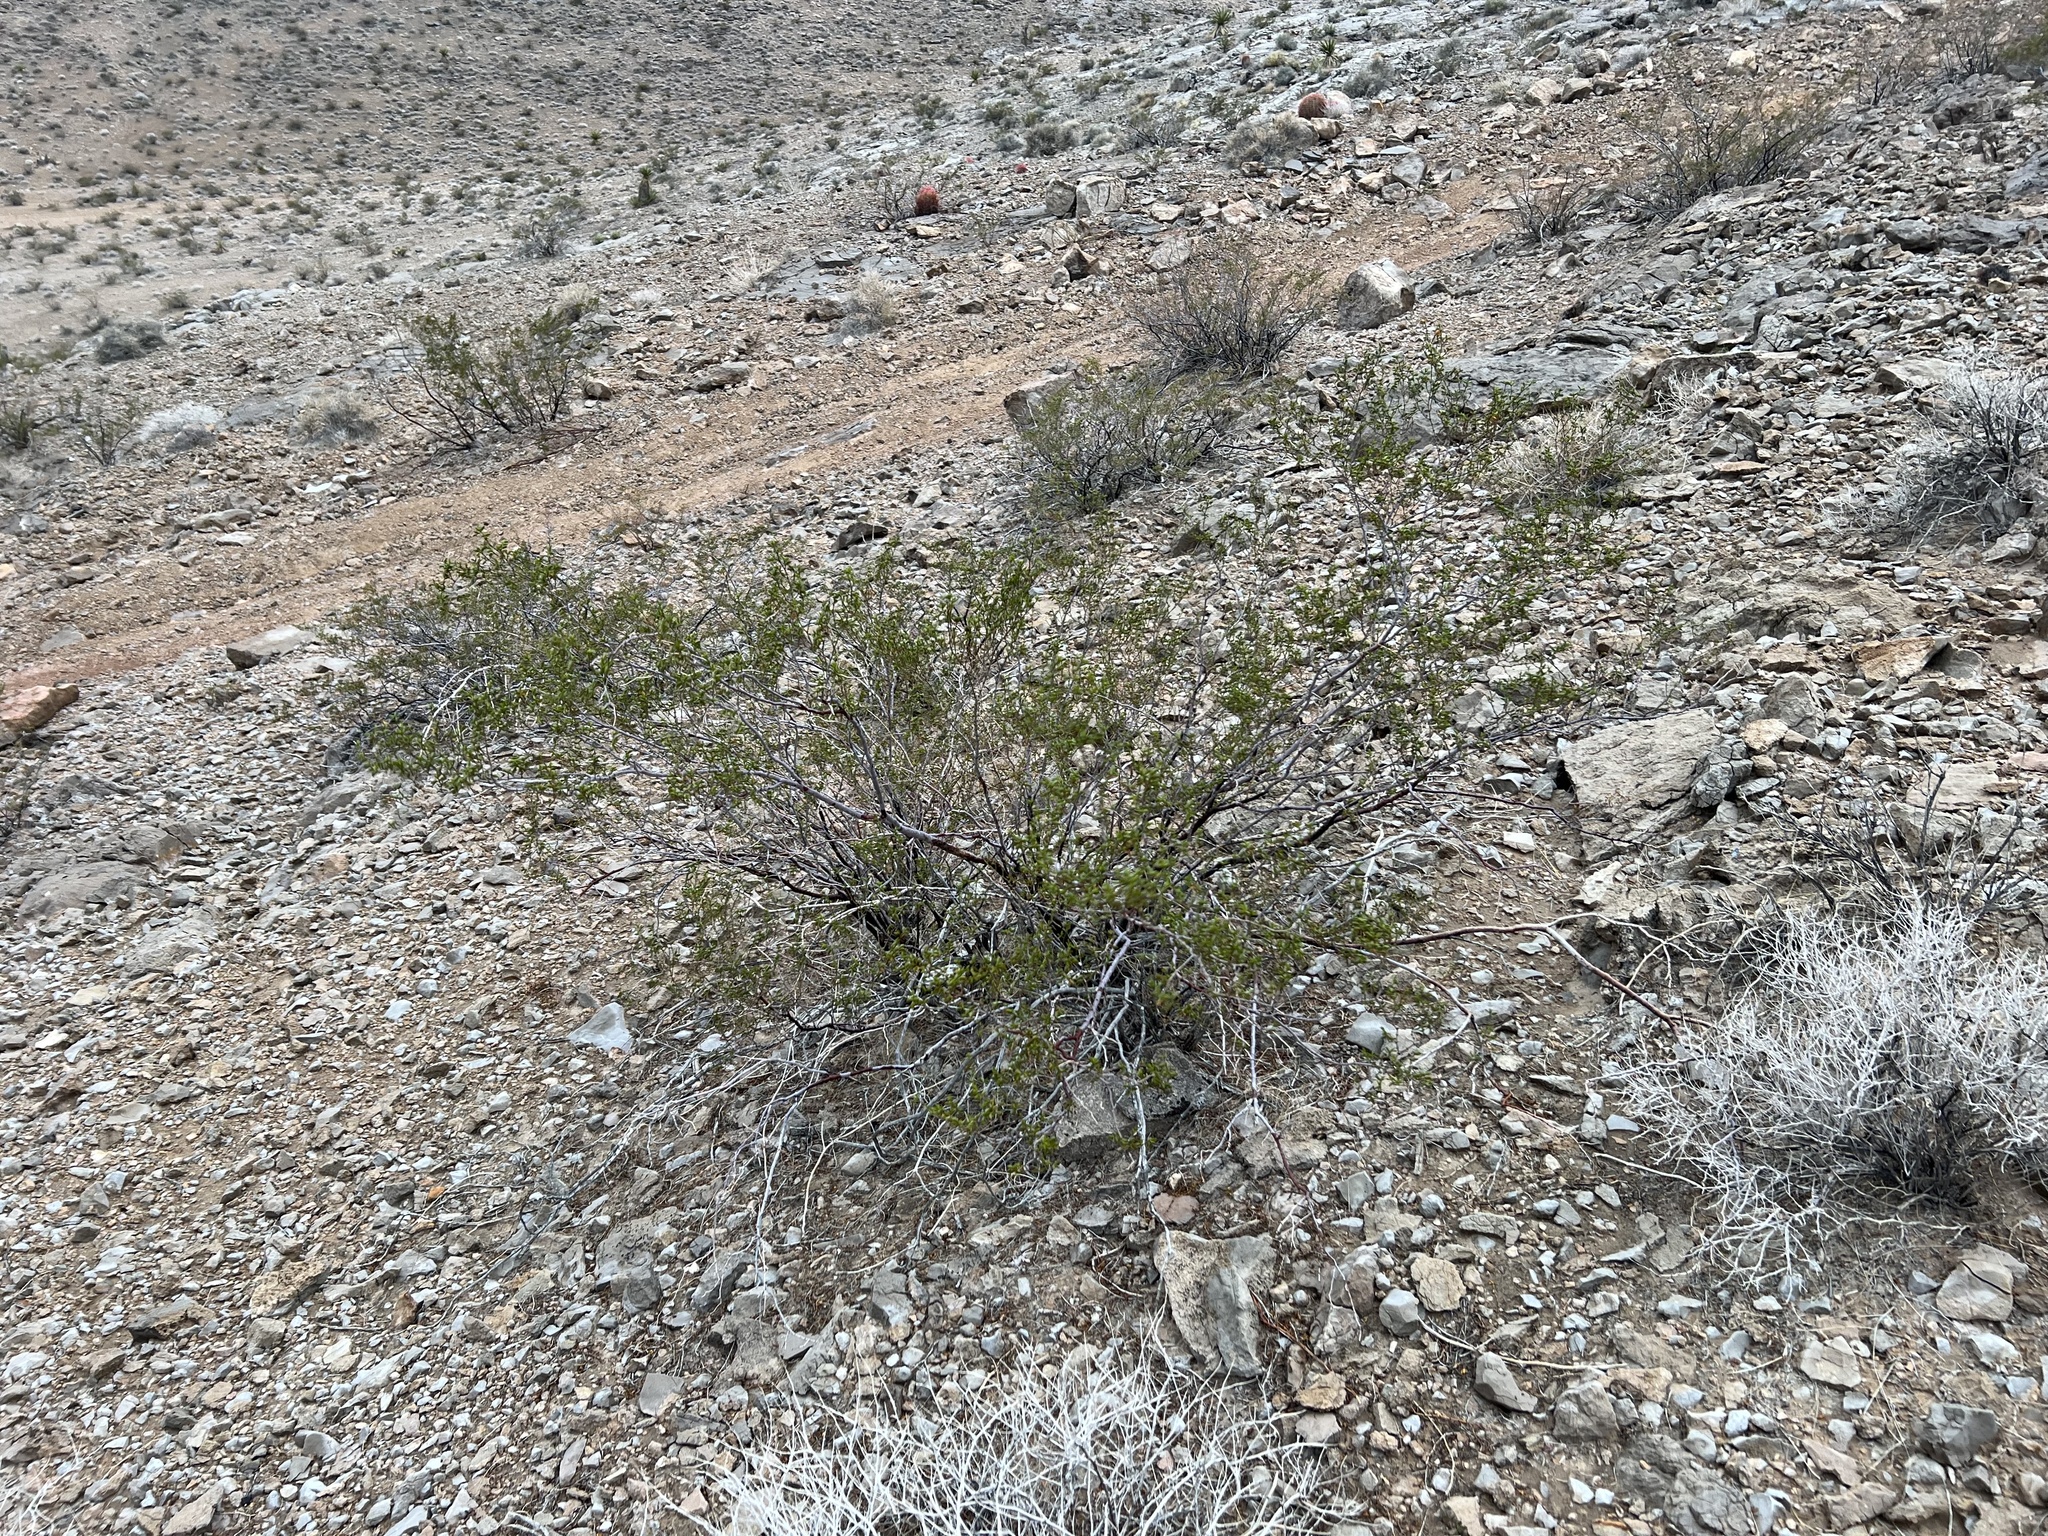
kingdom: Plantae
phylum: Tracheophyta
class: Magnoliopsida
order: Zygophyllales
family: Zygophyllaceae
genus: Larrea
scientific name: Larrea tridentata
